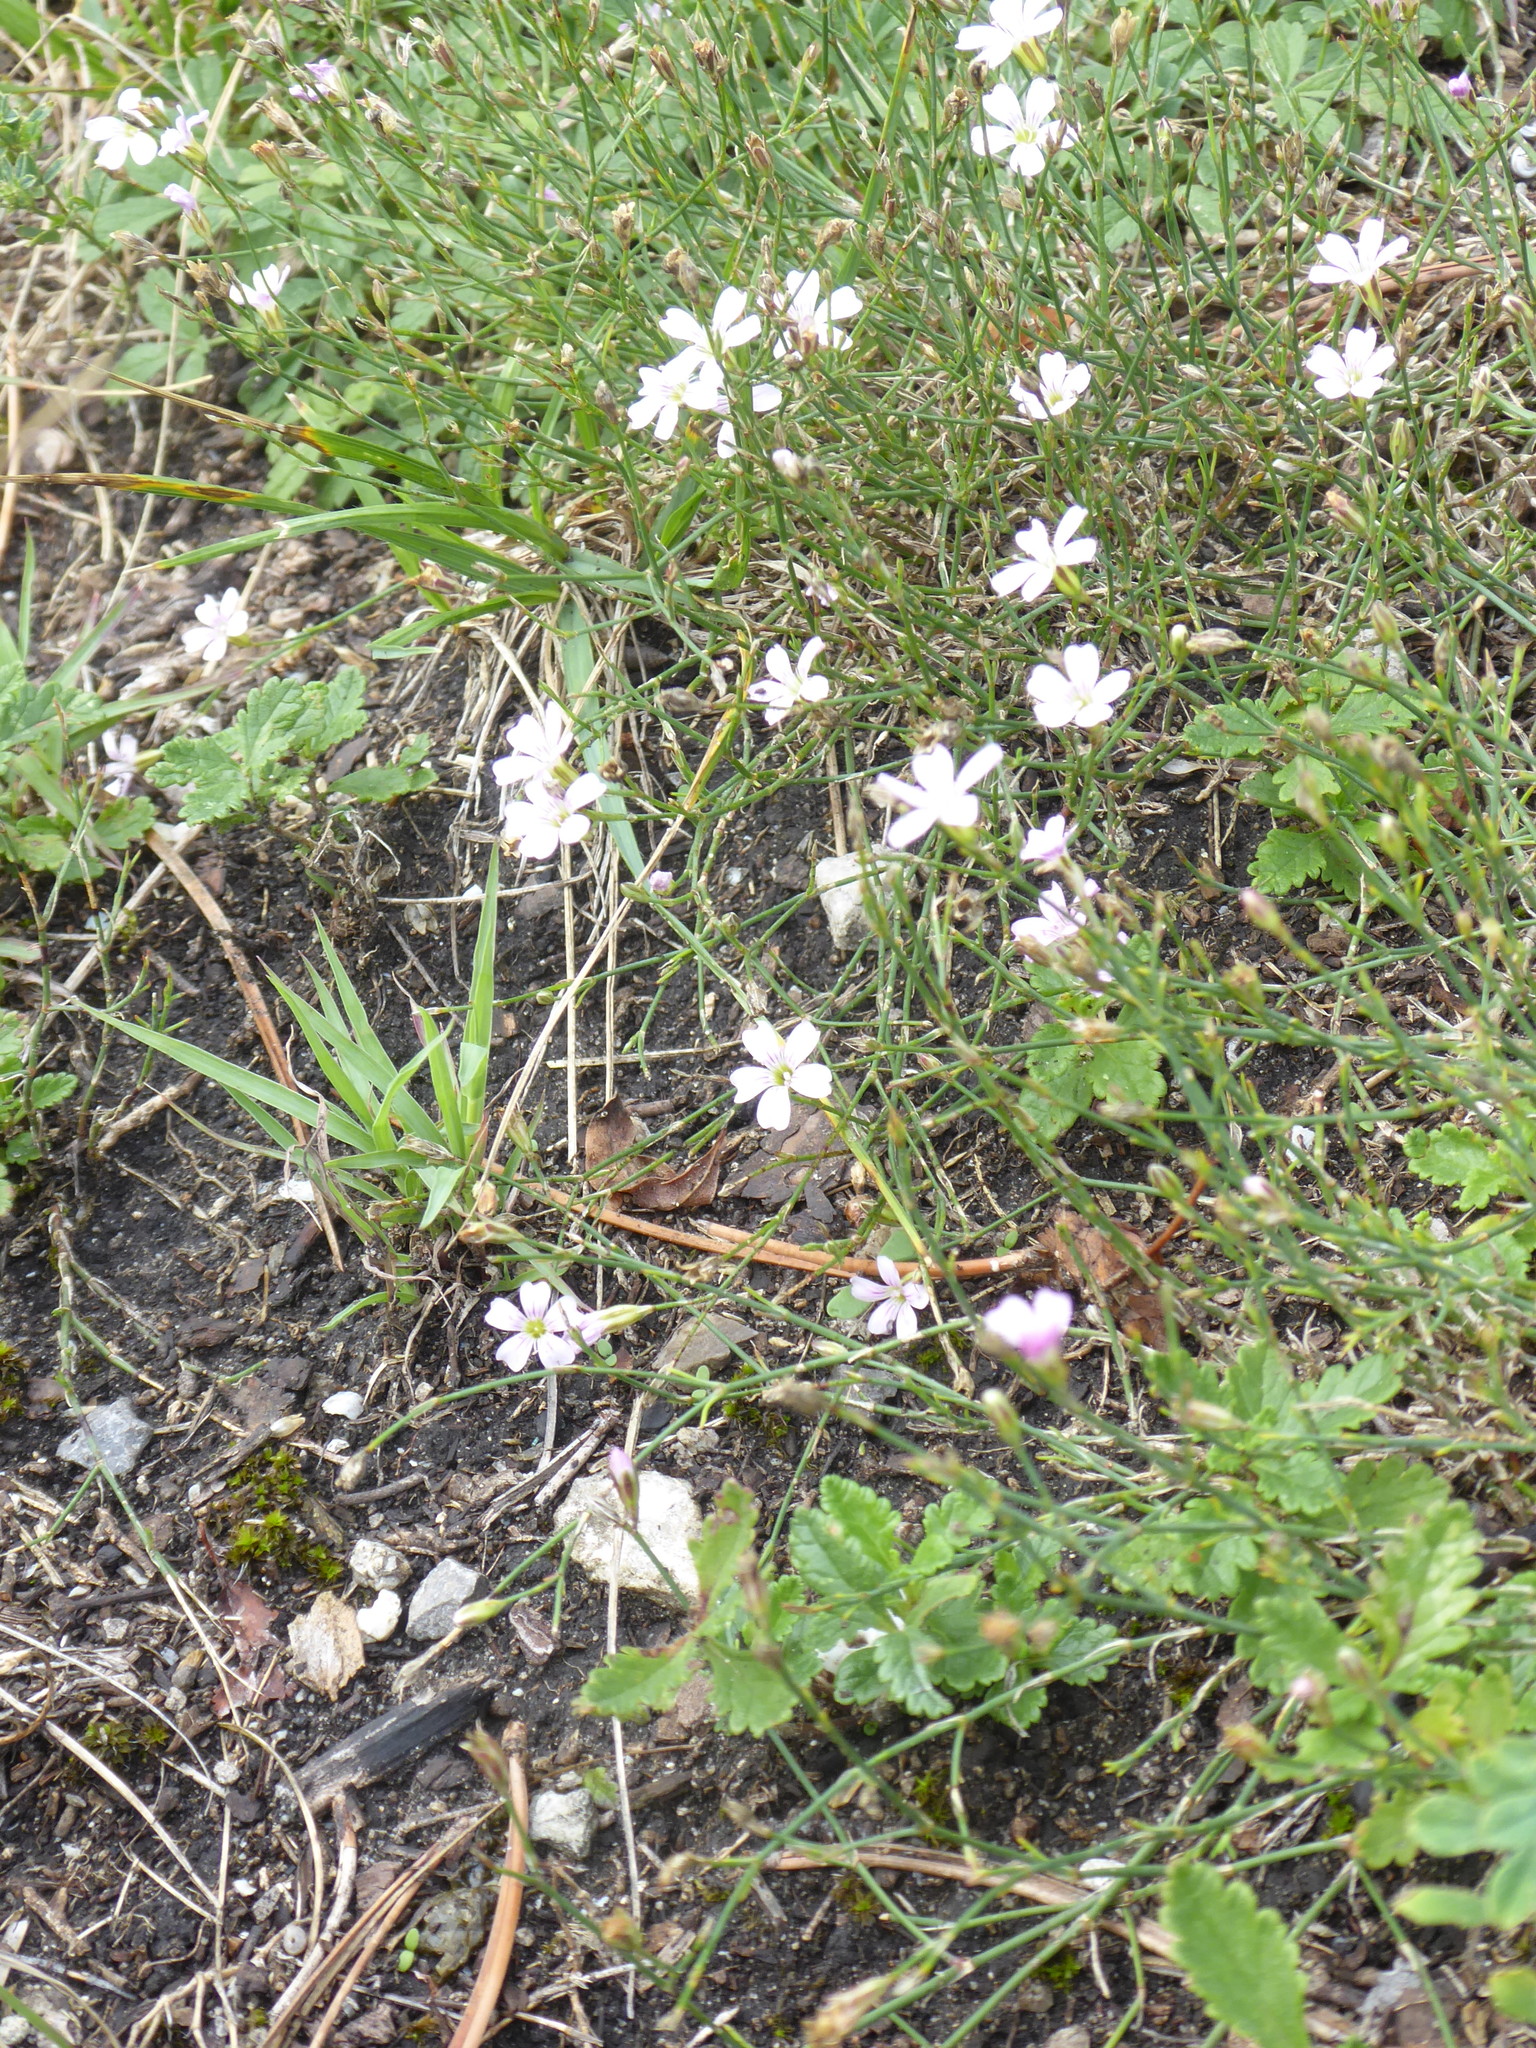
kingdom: Plantae
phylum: Tracheophyta
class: Magnoliopsida
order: Caryophyllales
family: Caryophyllaceae
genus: Petrorhagia
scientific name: Petrorhagia saxifraga
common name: Tunicflower
